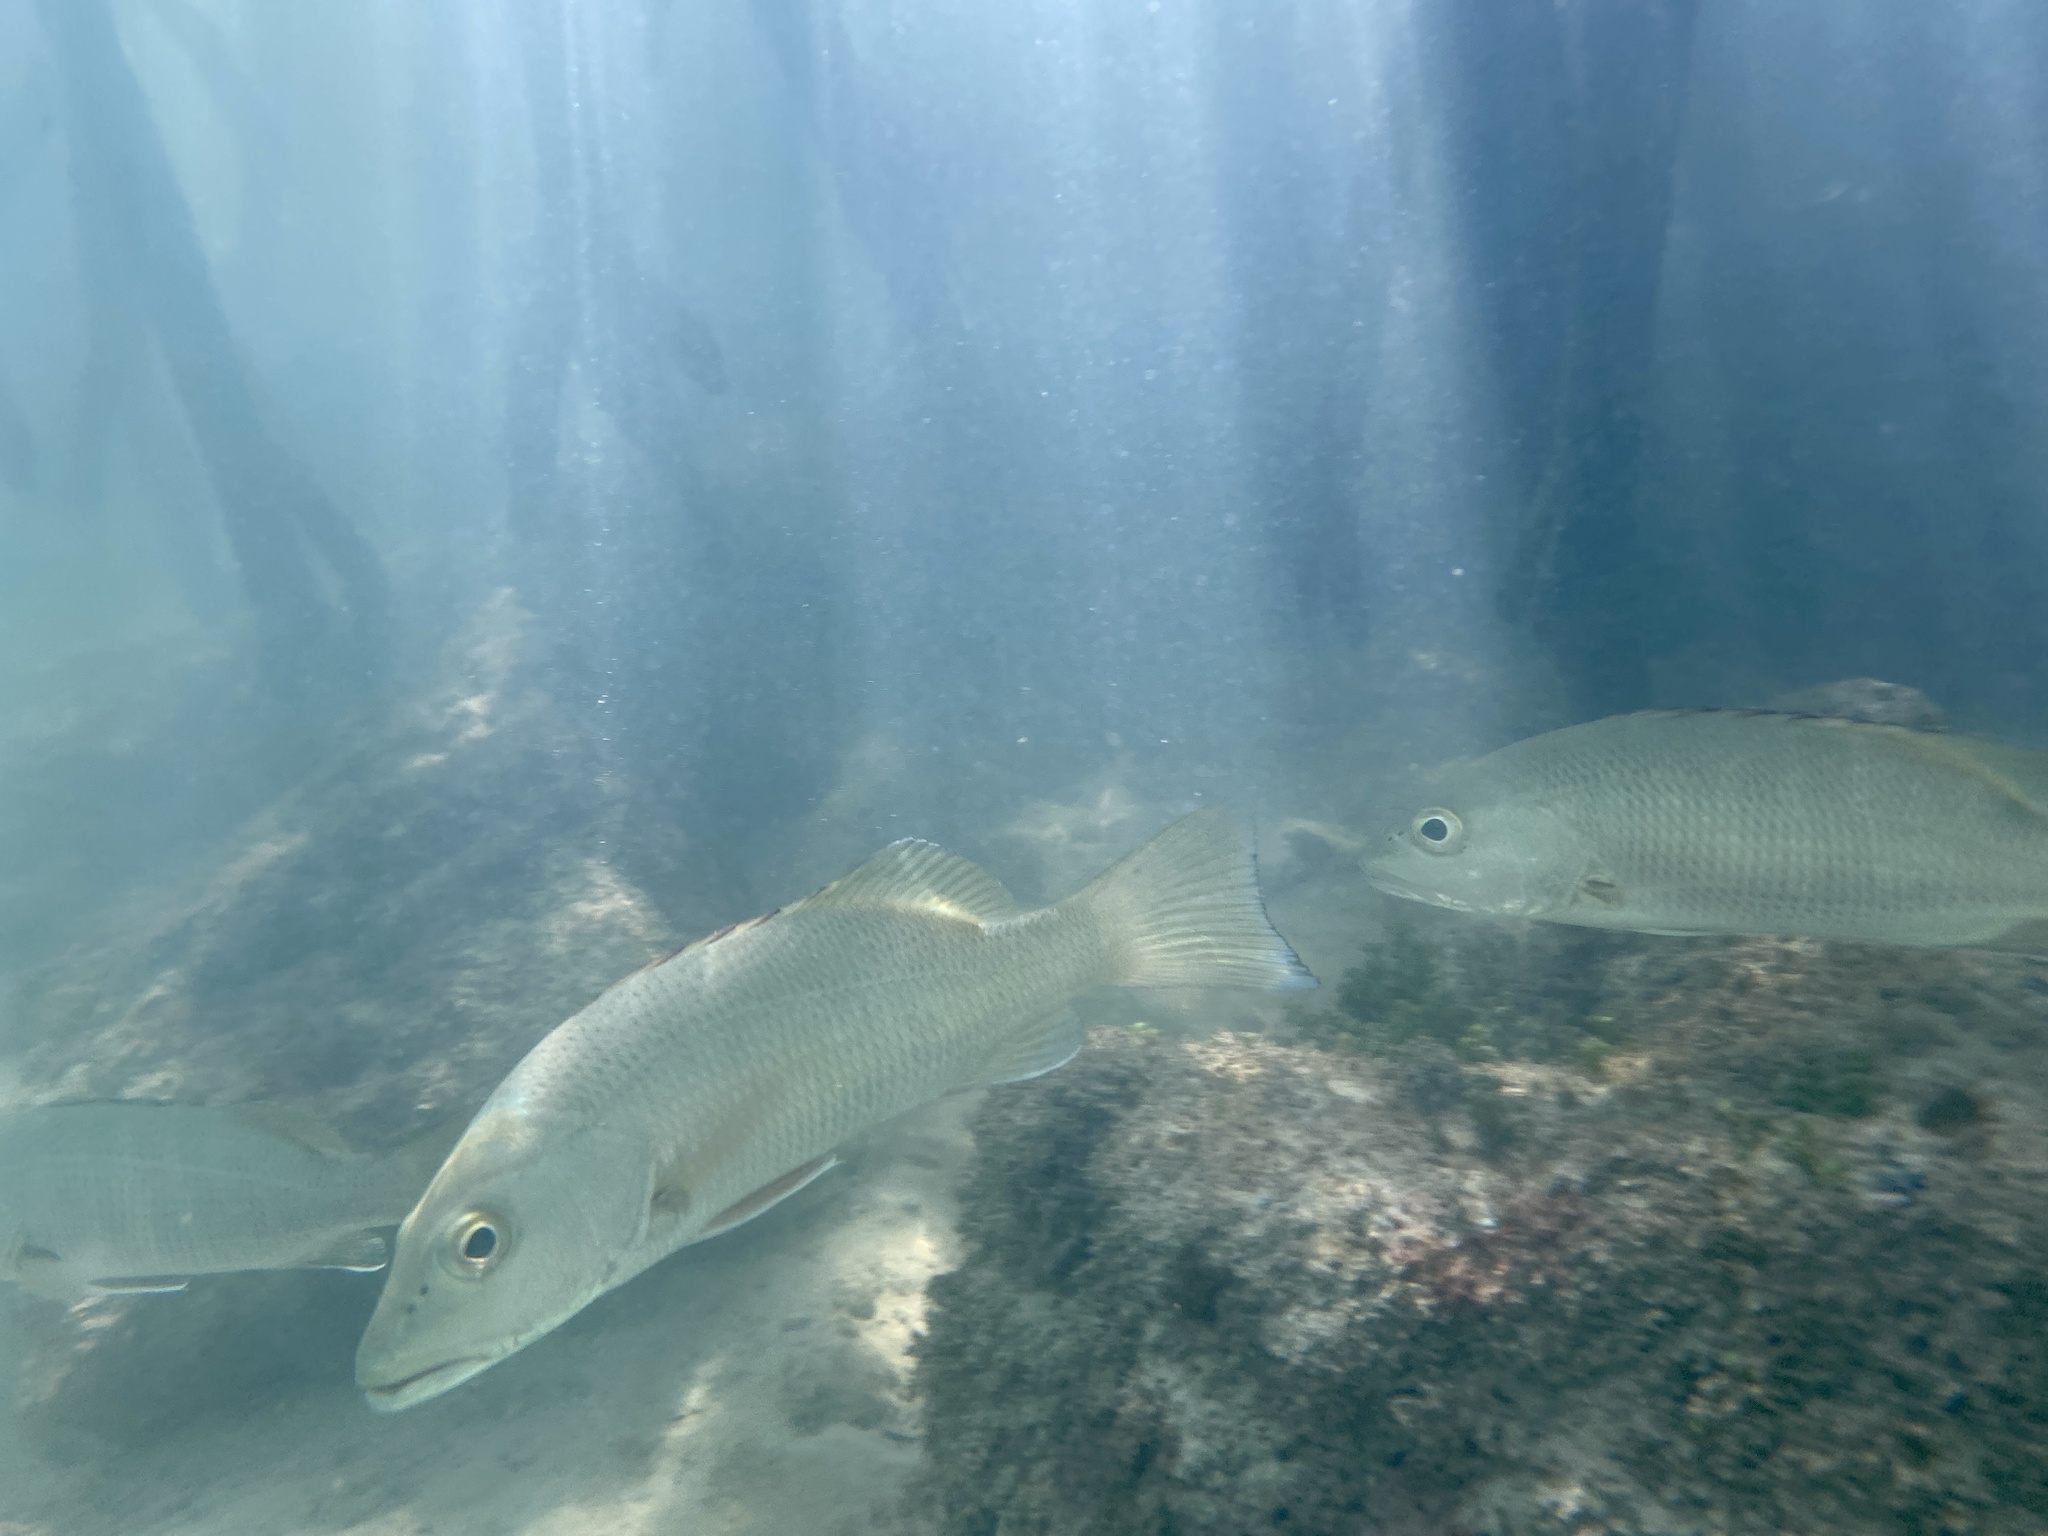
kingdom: Animalia
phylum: Chordata
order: Perciformes
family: Lutjanidae
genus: Lutjanus
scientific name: Lutjanus novemfasciatus
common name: Pacific dog snapper
